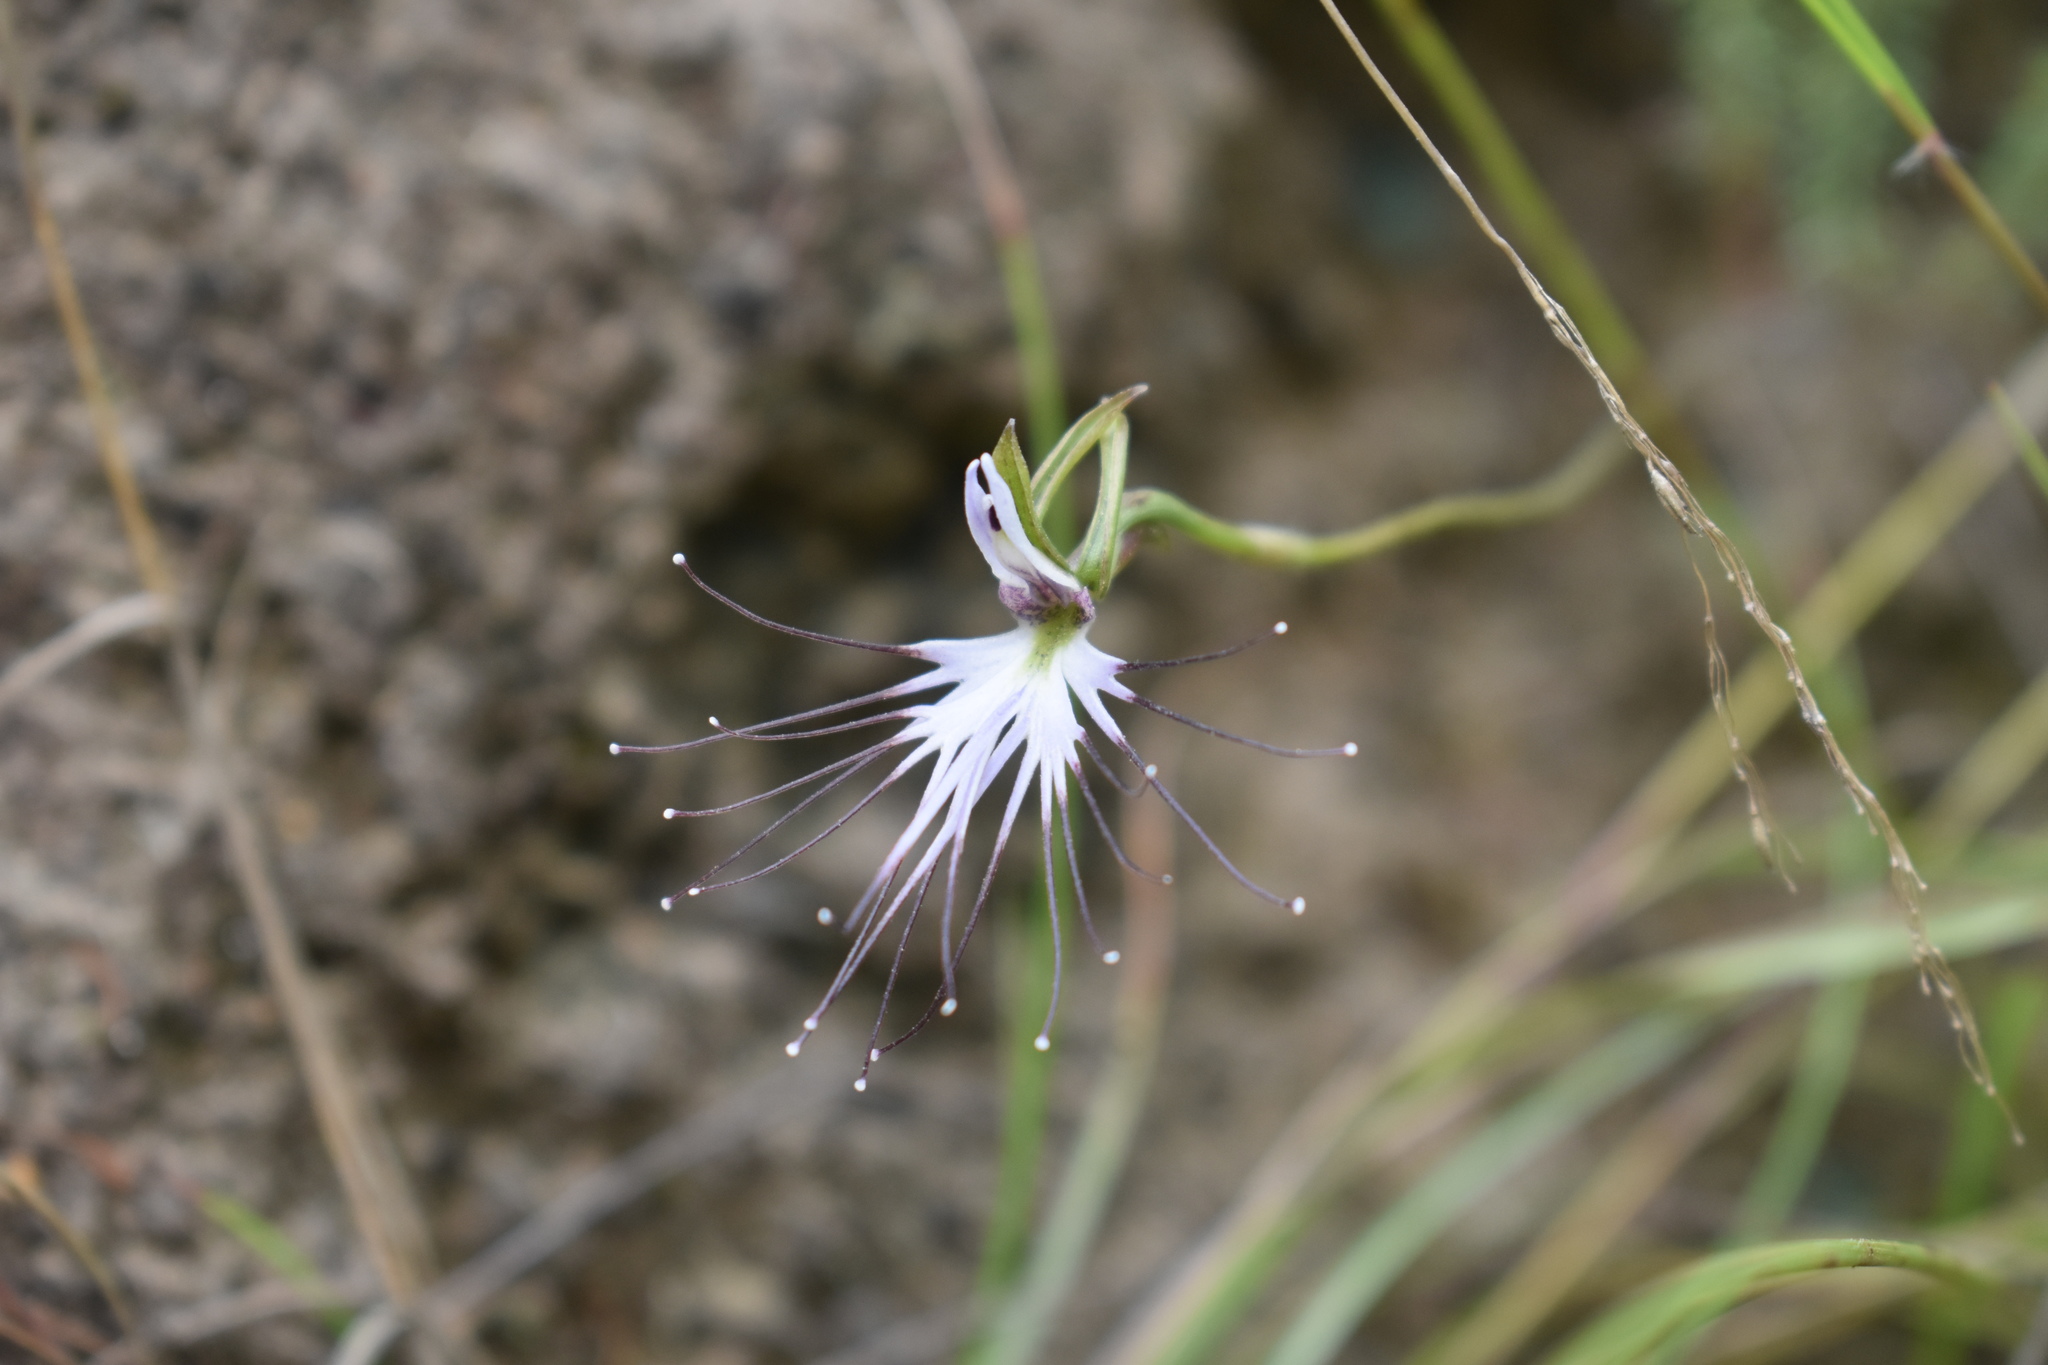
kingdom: Plantae
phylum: Tracheophyta
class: Liliopsida
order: Asparagales
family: Orchidaceae
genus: Holothrix
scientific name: Holothrix etheliae
